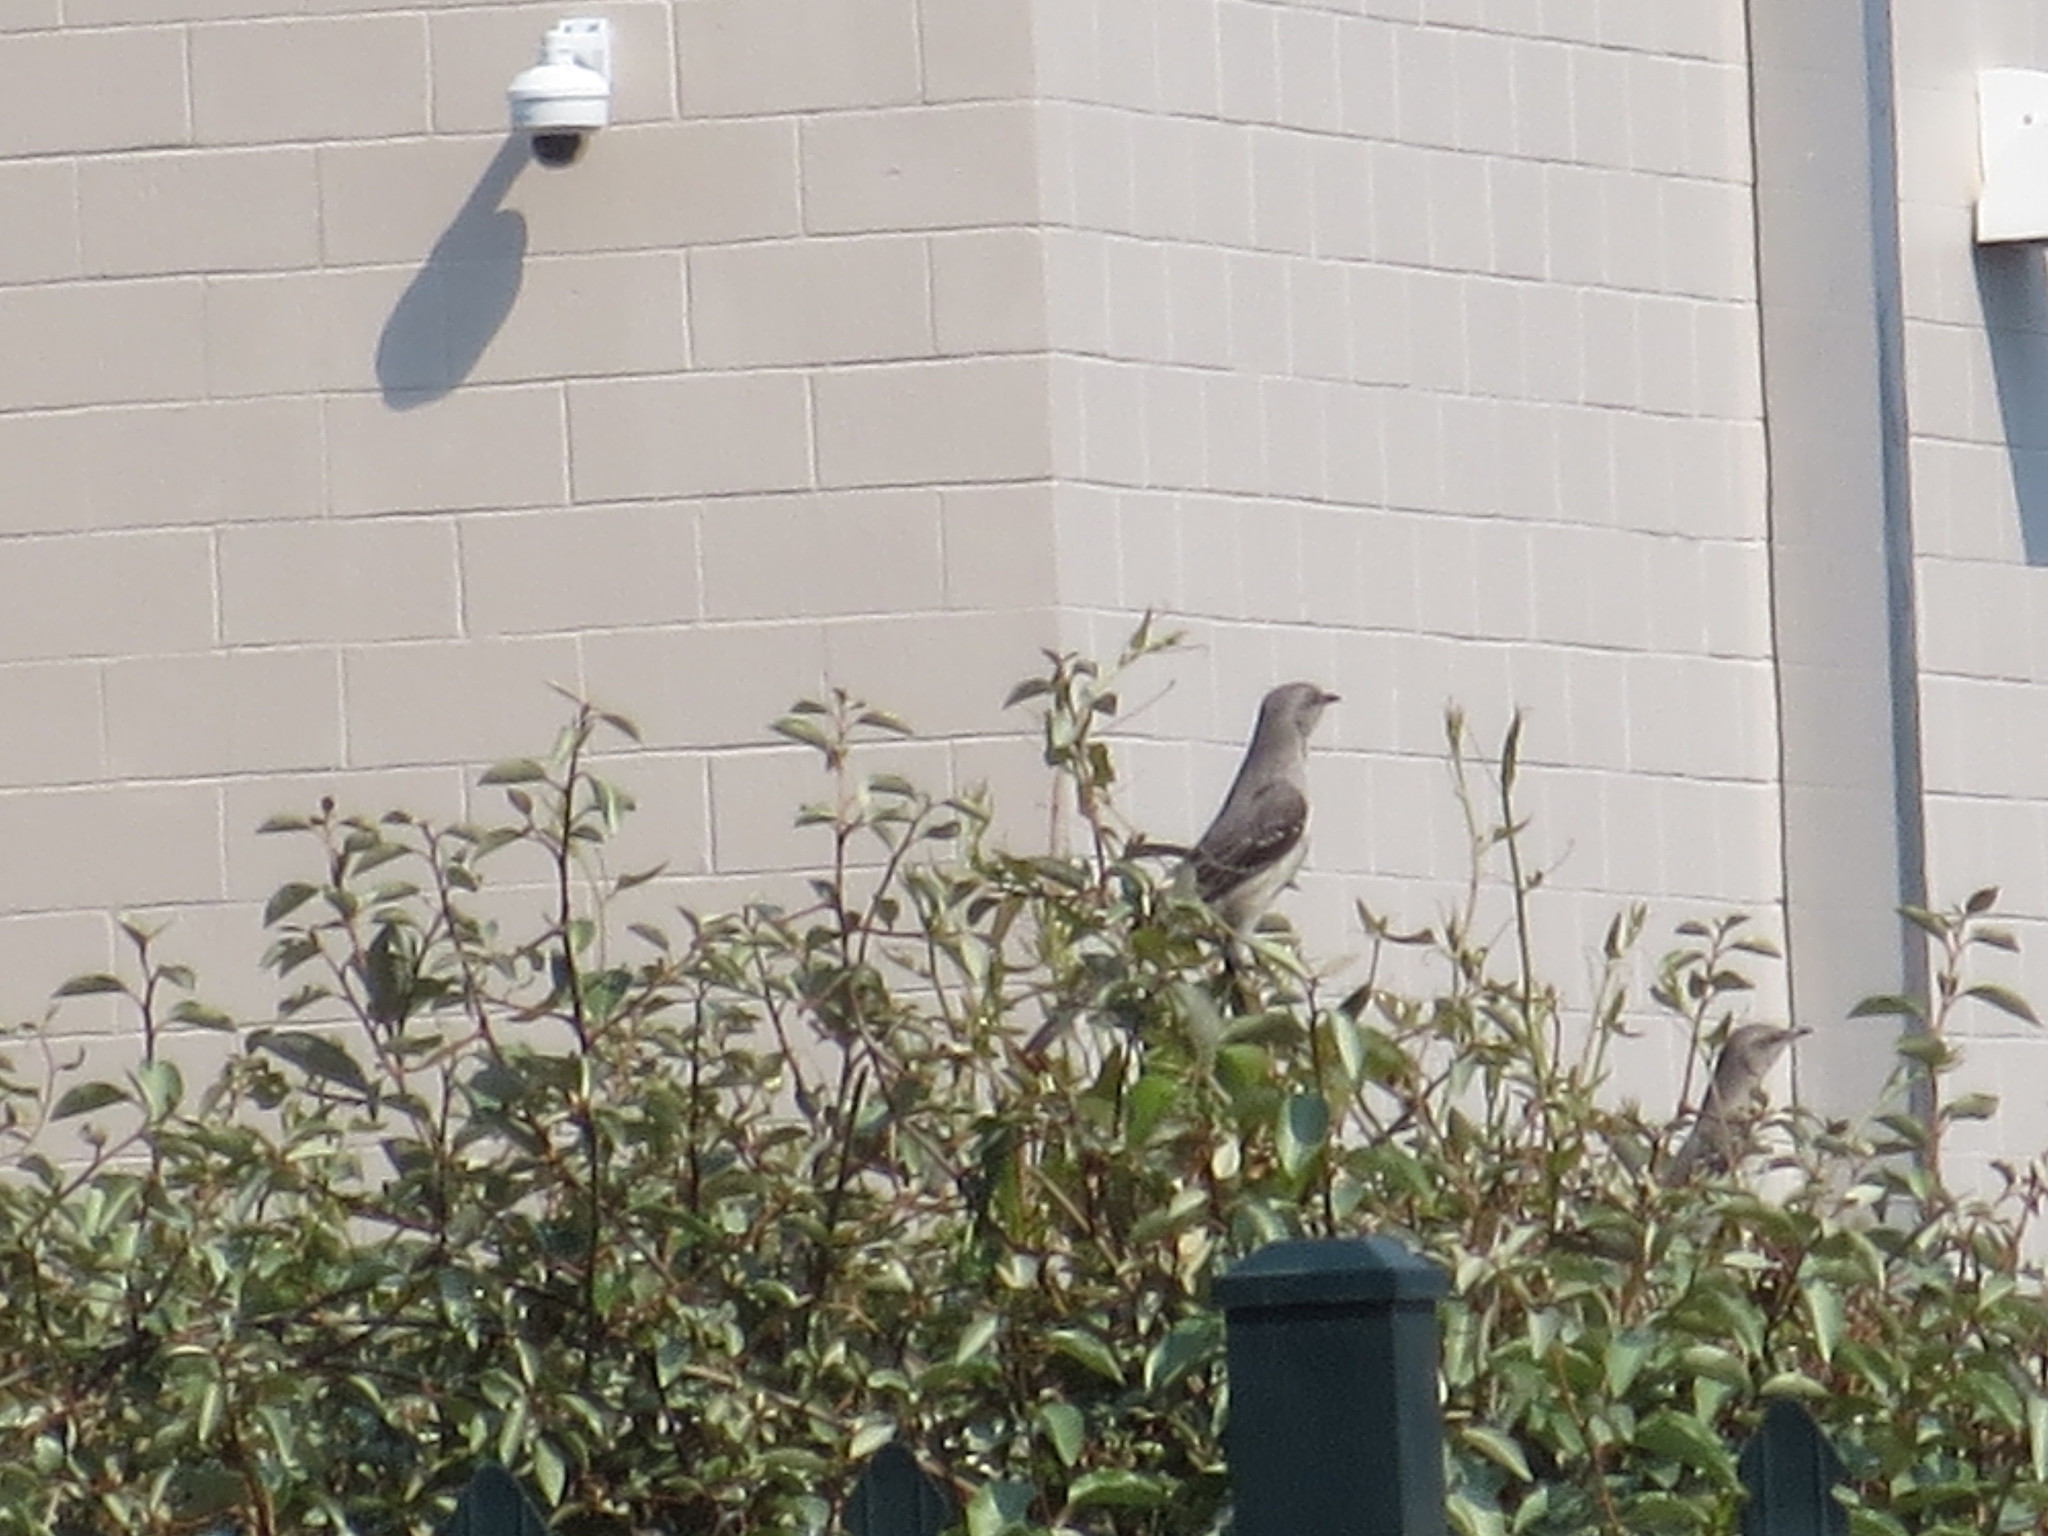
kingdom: Animalia
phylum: Chordata
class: Aves
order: Passeriformes
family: Mimidae
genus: Mimus
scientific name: Mimus polyglottos
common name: Northern mockingbird
